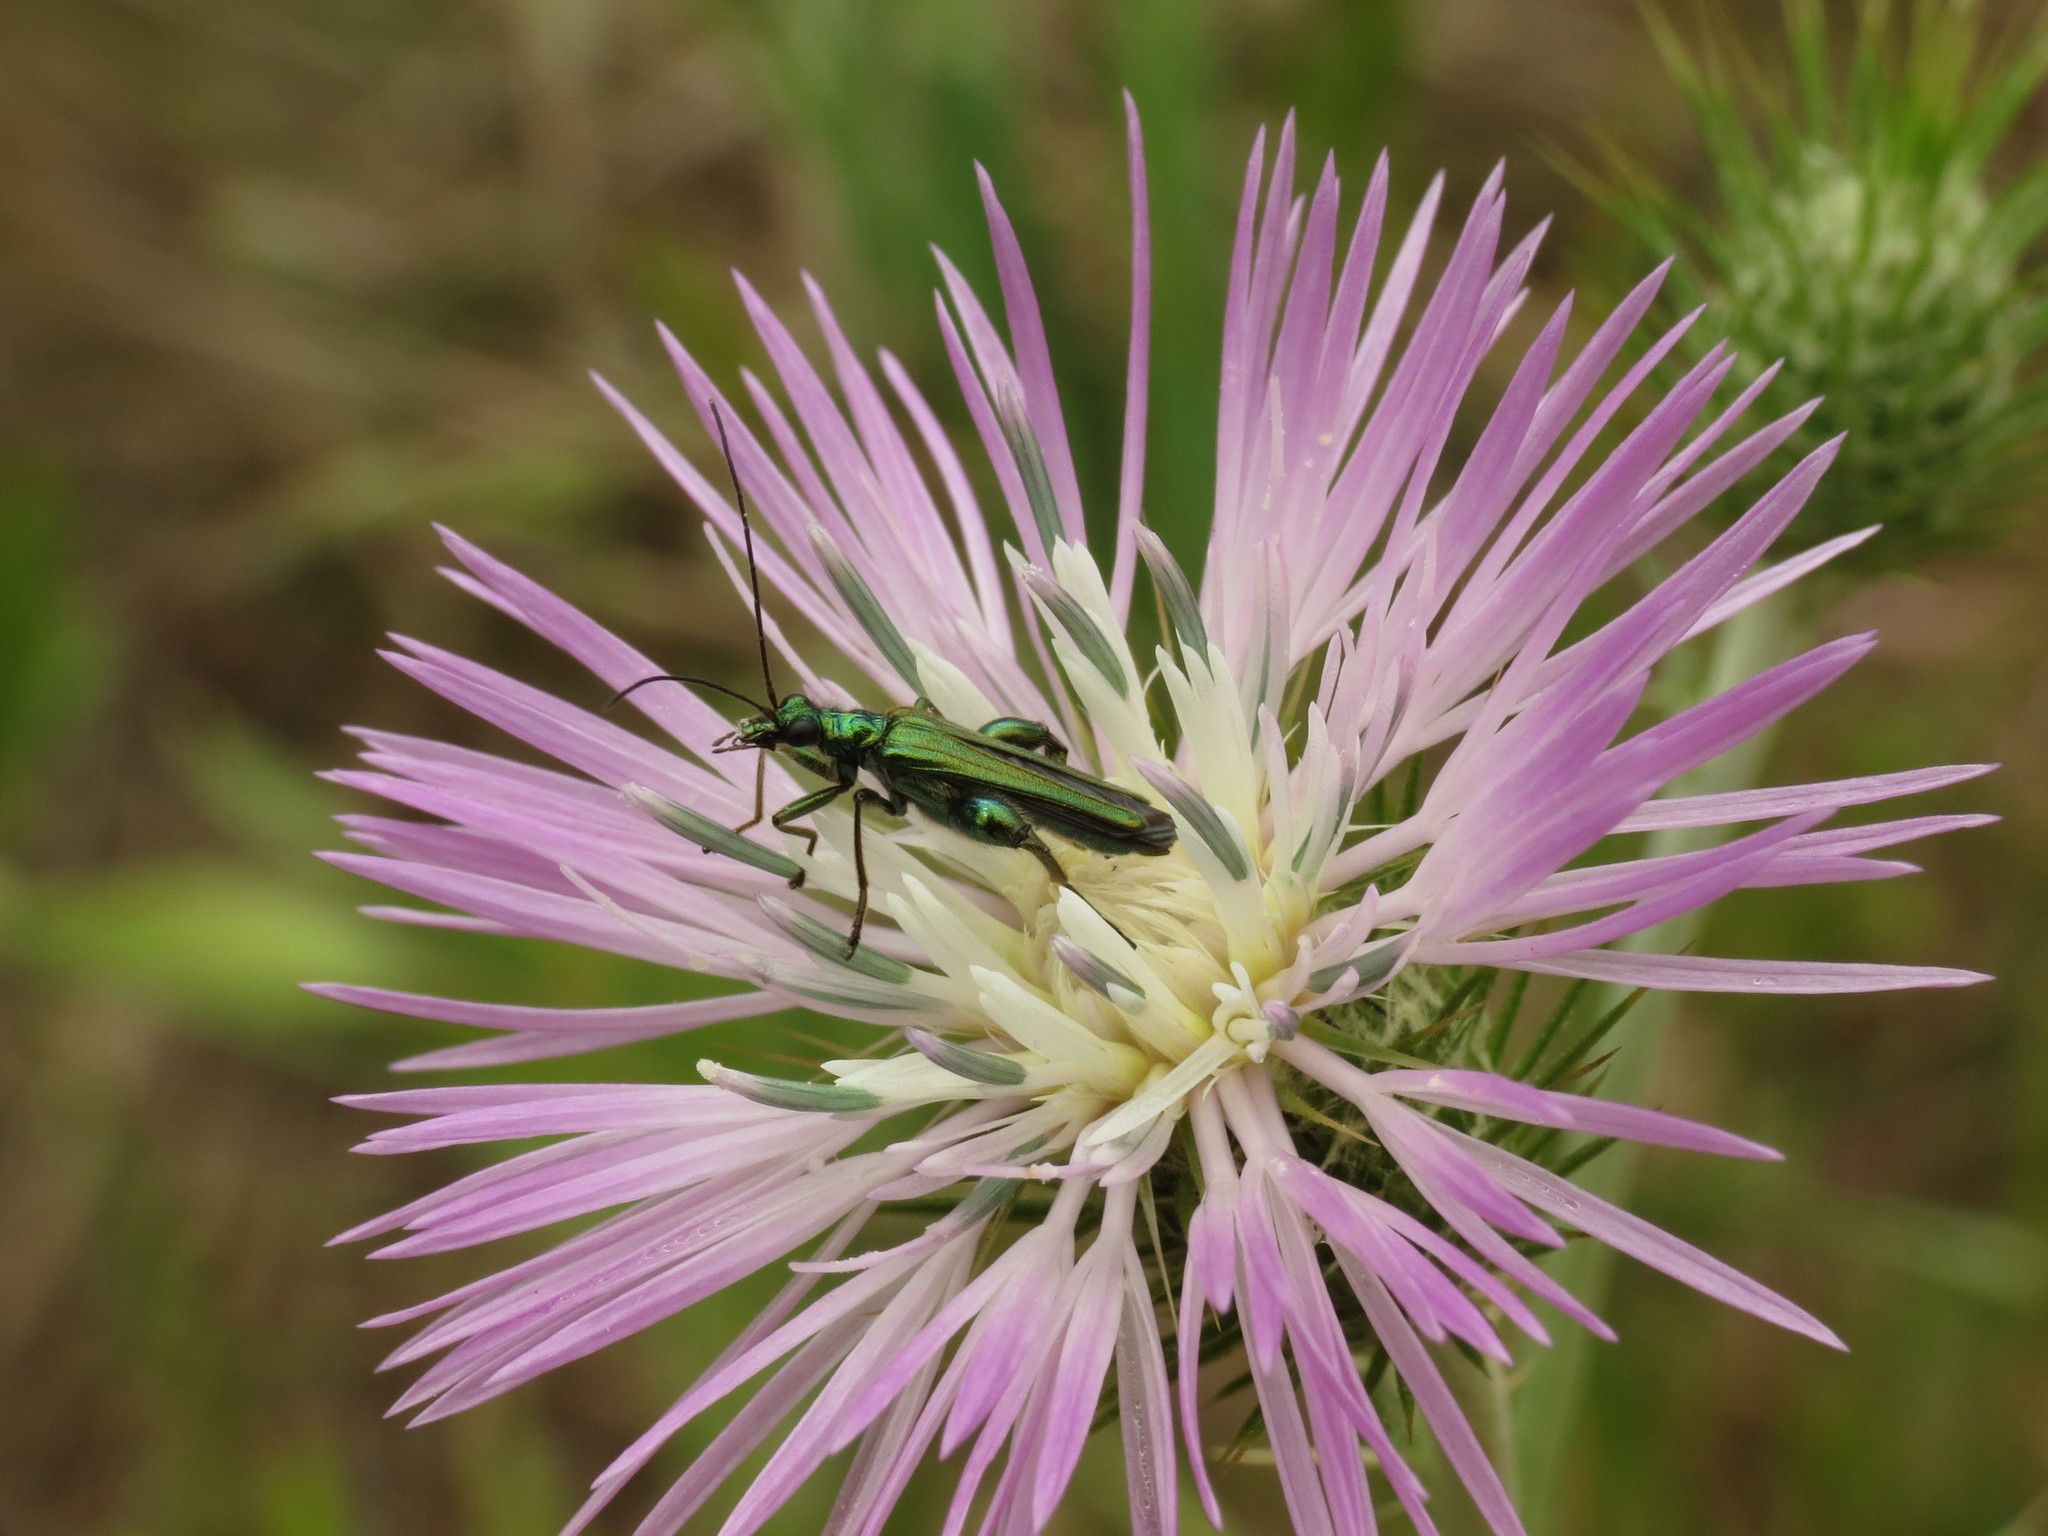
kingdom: Animalia
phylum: Arthropoda
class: Insecta
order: Coleoptera
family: Oedemeridae
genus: Oedemera
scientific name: Oedemera nobilis
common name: Swollen-thighed beetle
